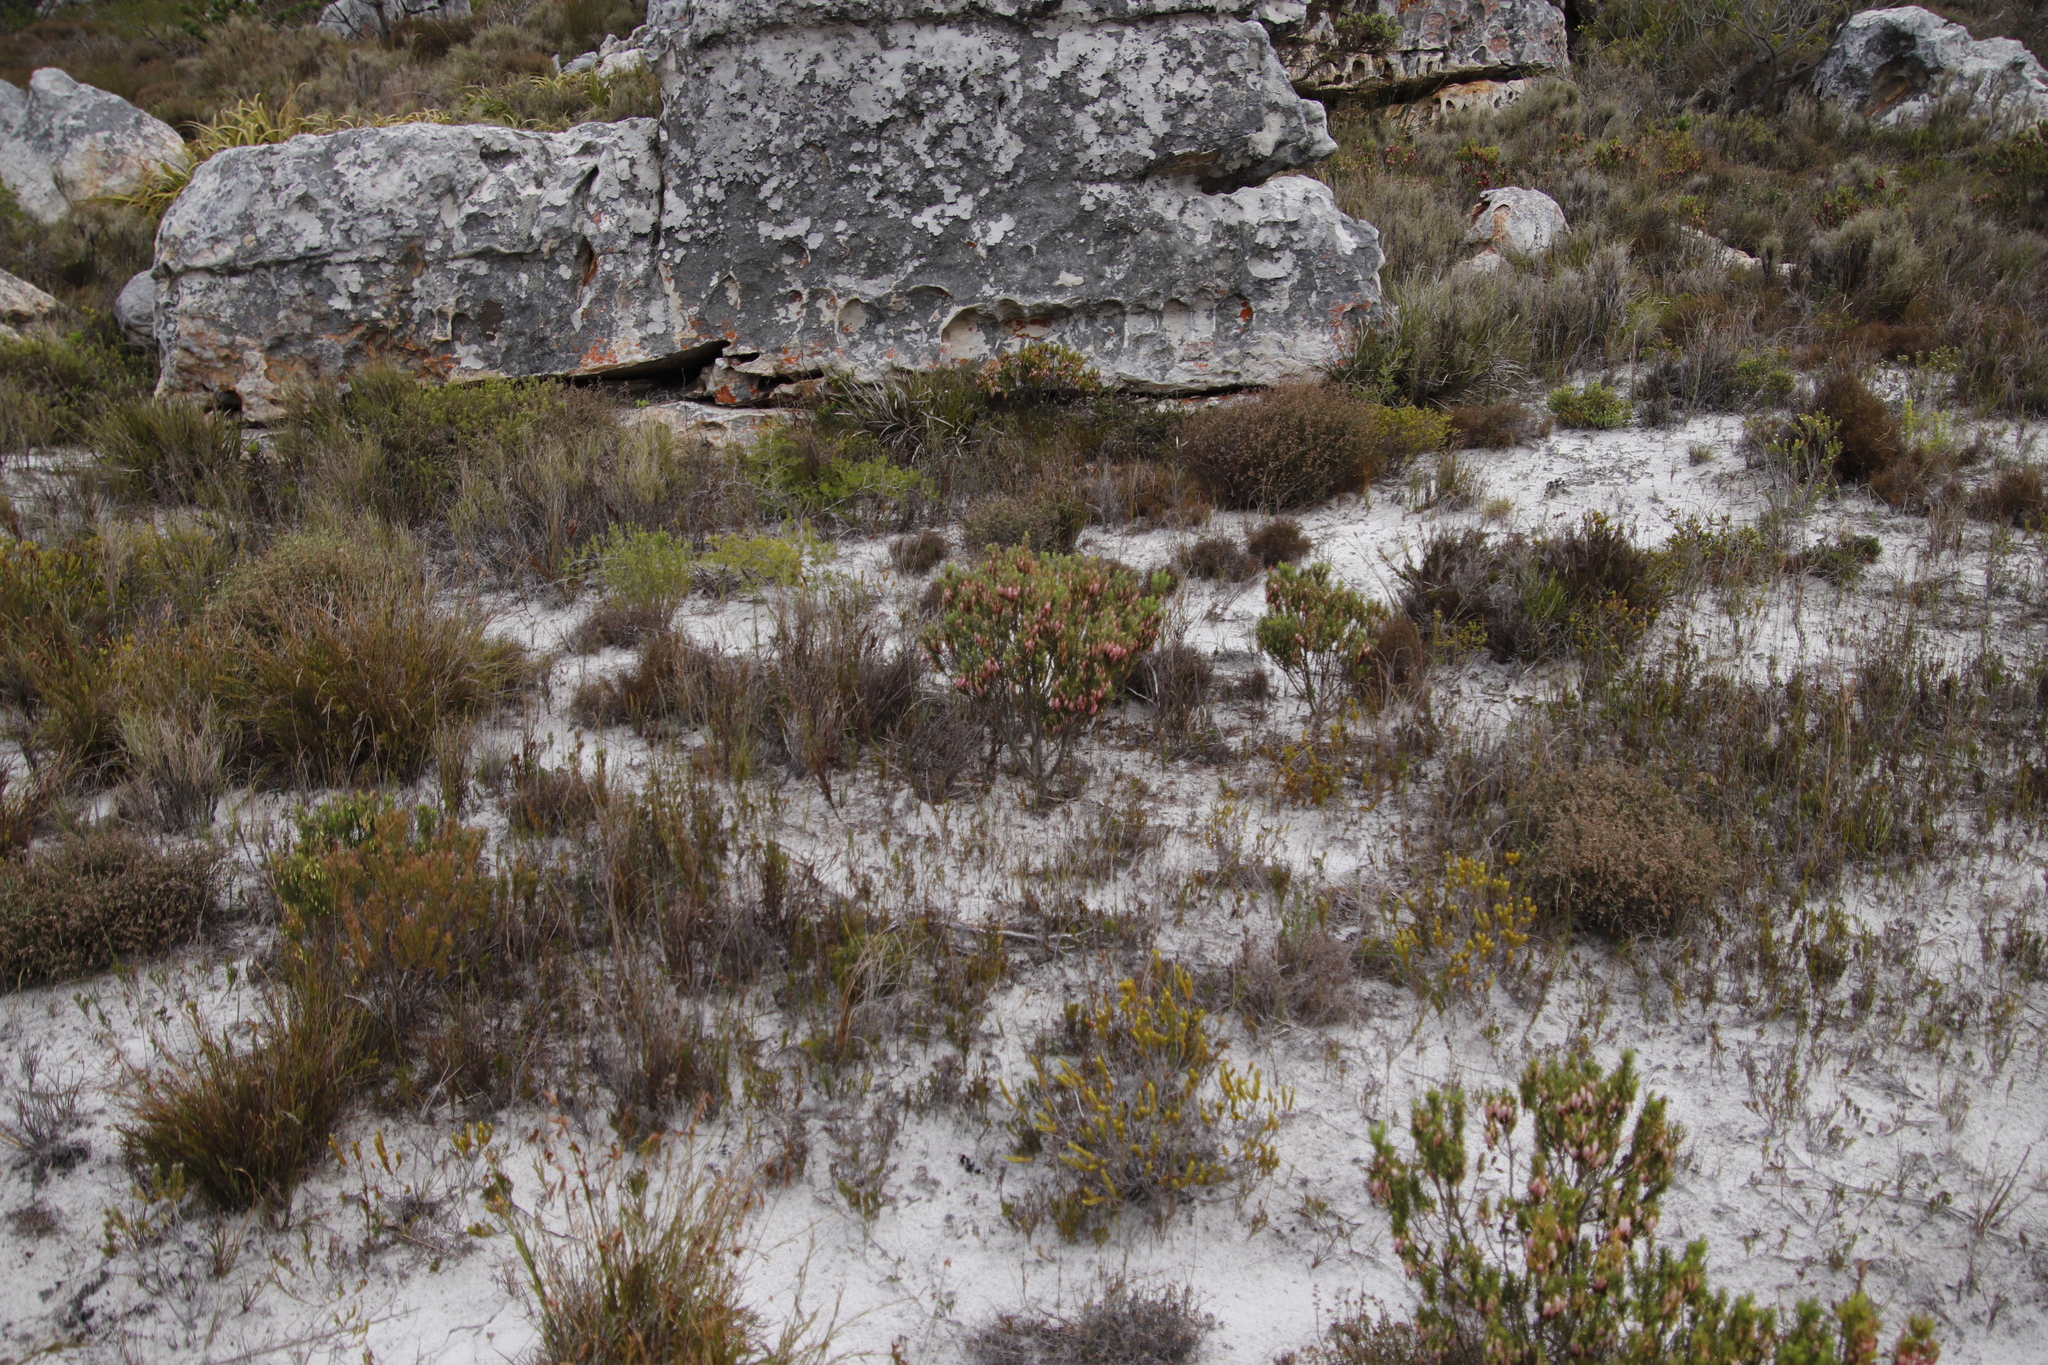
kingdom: Plantae
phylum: Tracheophyta
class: Magnoliopsida
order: Ericales
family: Ericaceae
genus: Erica
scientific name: Erica plukenetii
